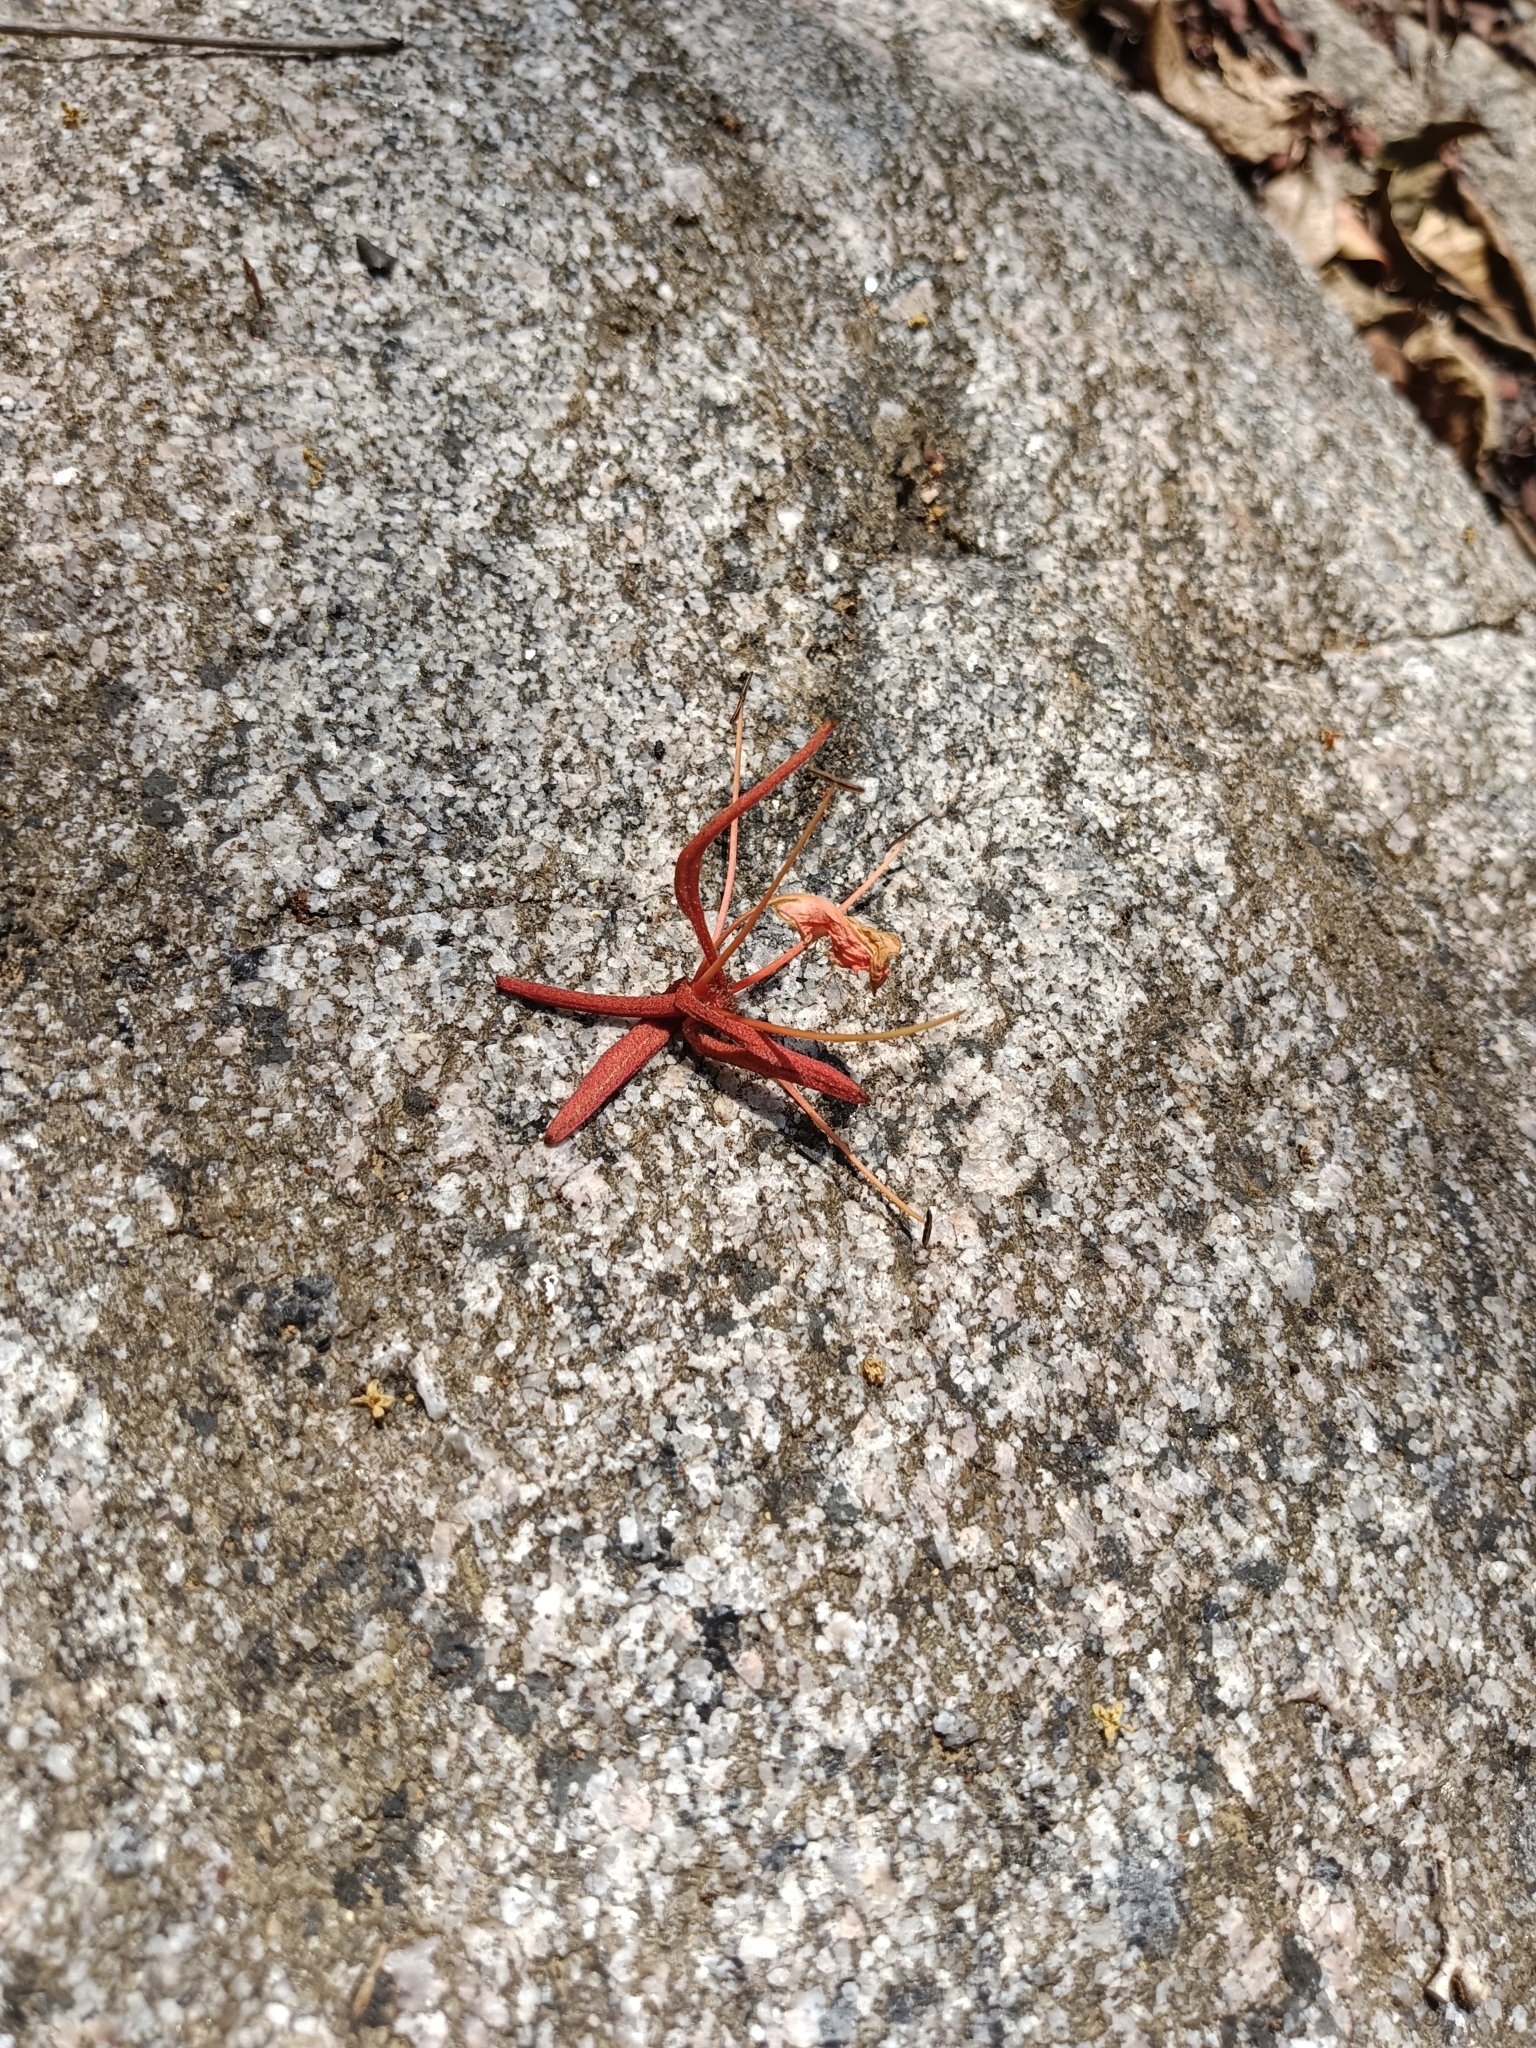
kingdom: Plantae
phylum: Tracheophyta
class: Magnoliopsida
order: Fabales
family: Fabaceae
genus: Phanera
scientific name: Phanera vahlii
